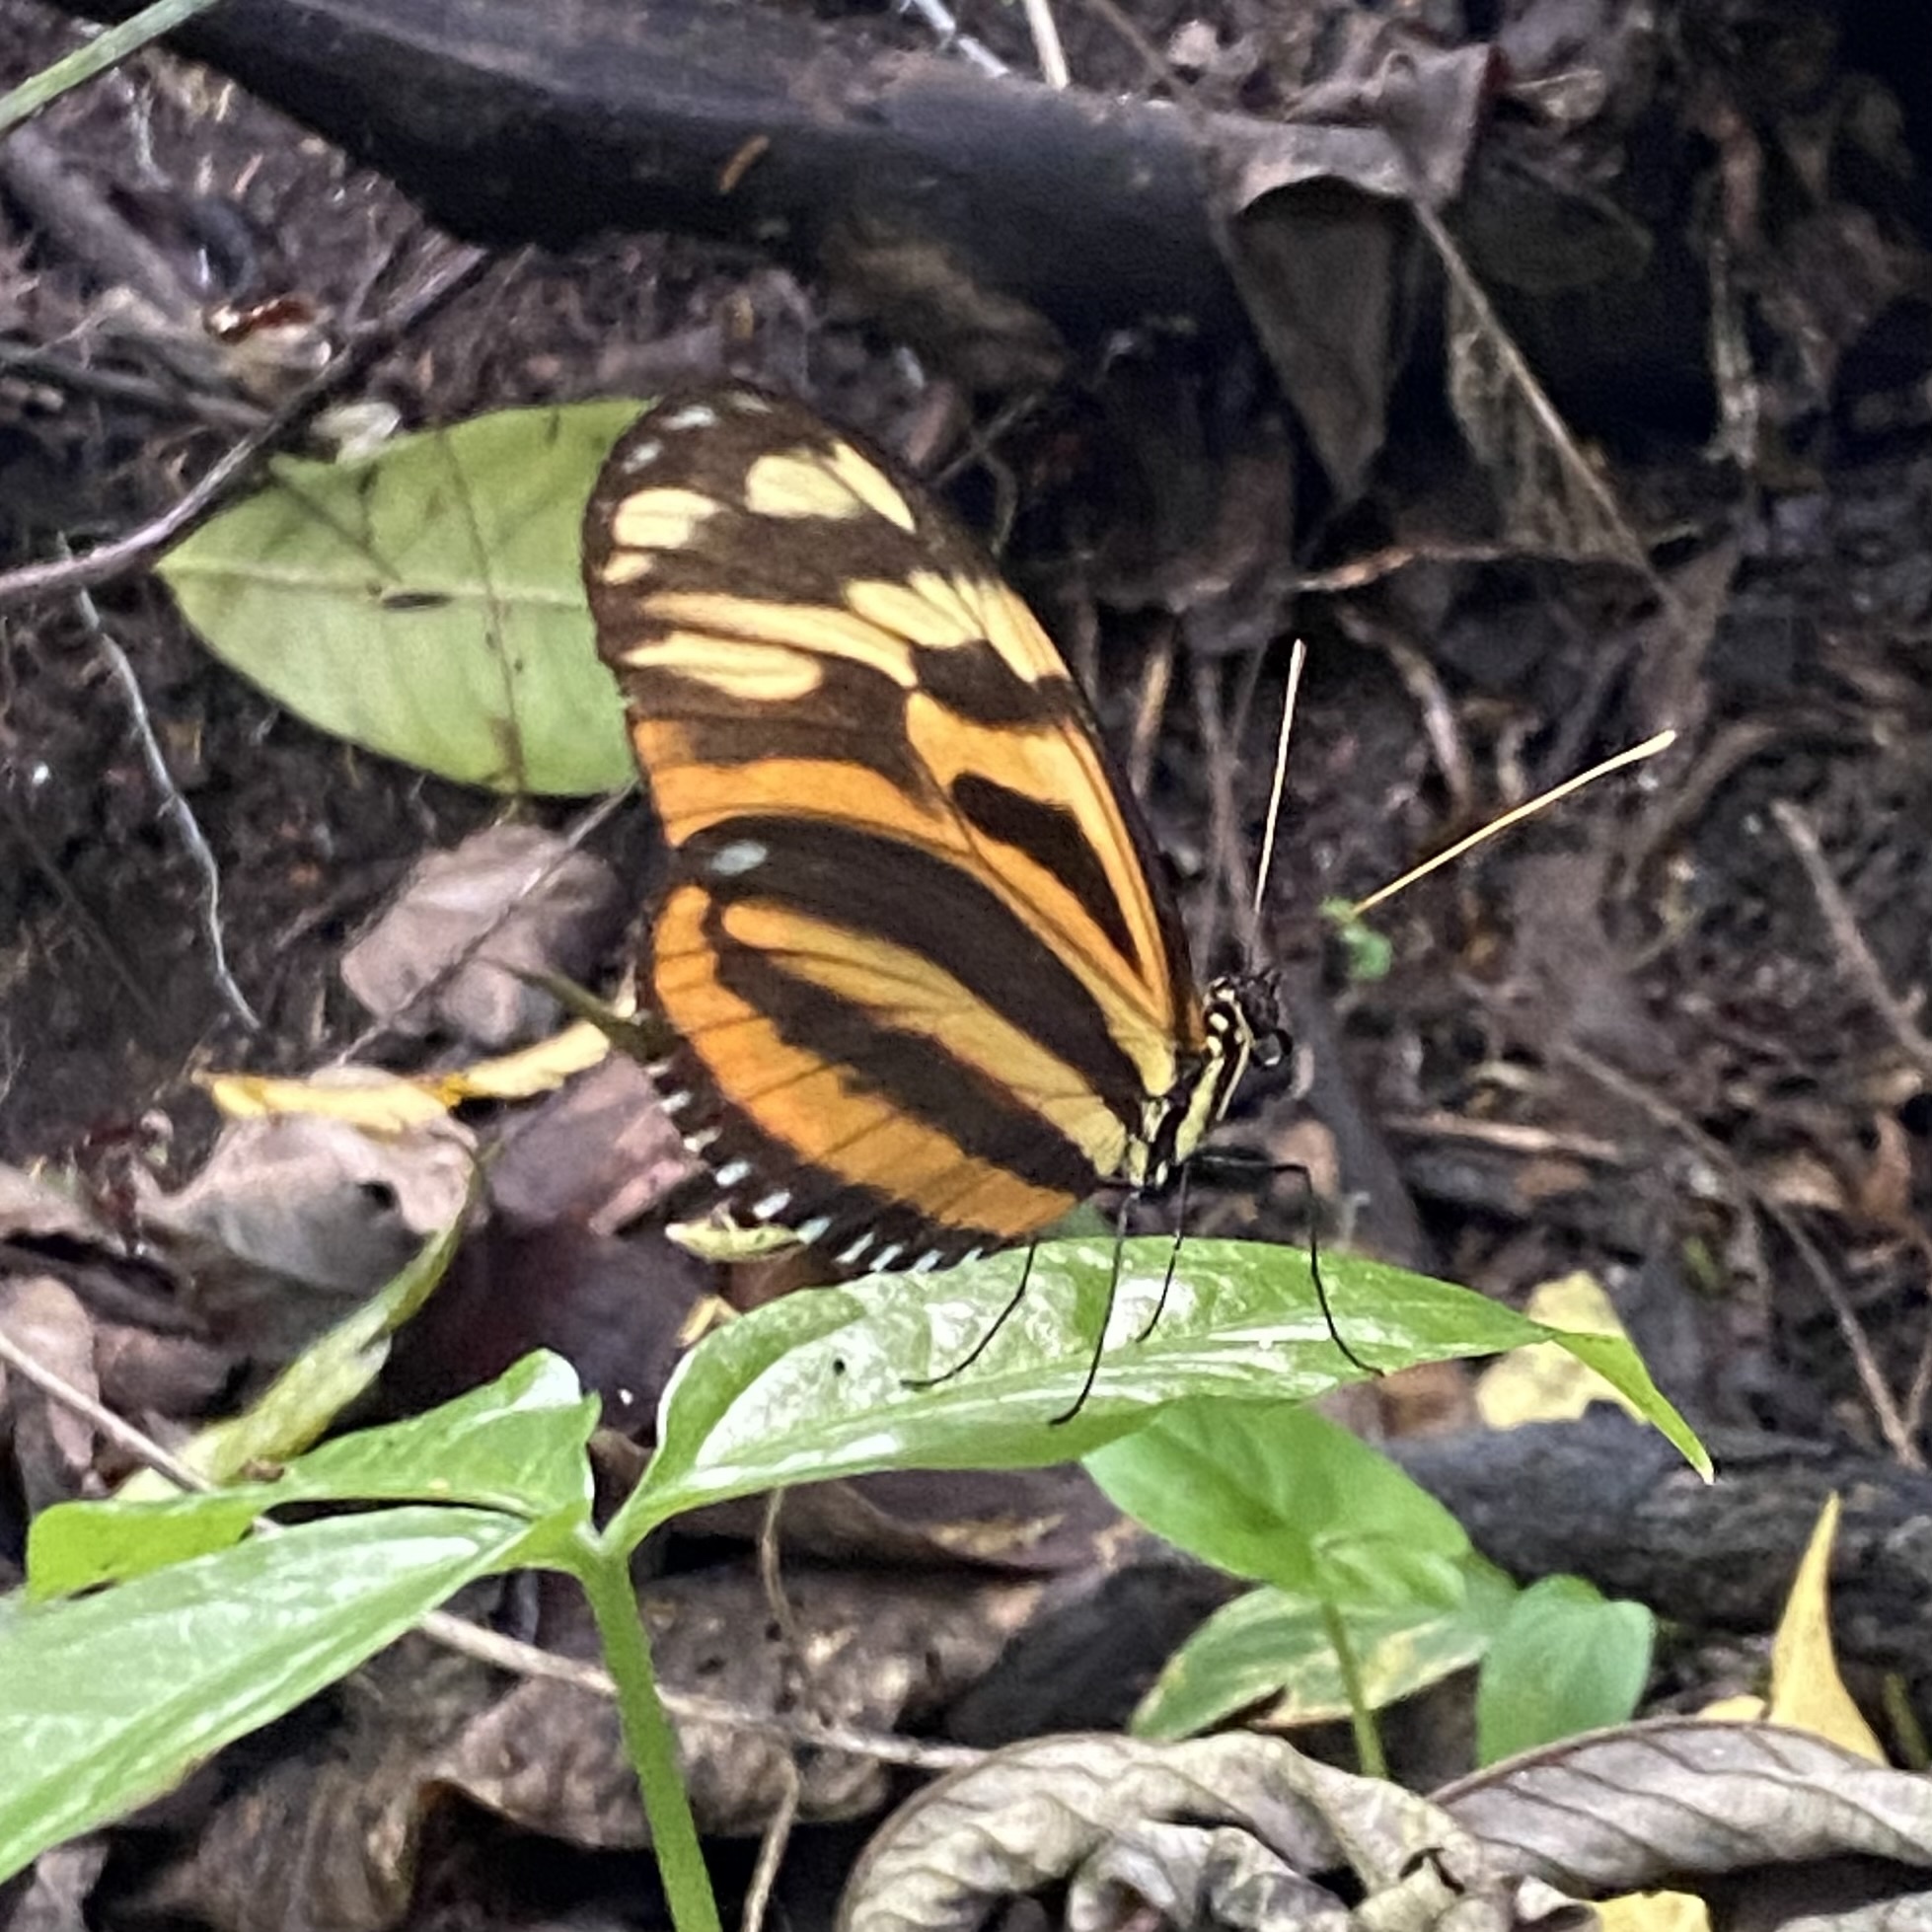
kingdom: Animalia
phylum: Arthropoda
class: Insecta
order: Lepidoptera
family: Nymphalidae
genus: Heliconius
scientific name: Heliconius ismenius
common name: Ismenius tiger
